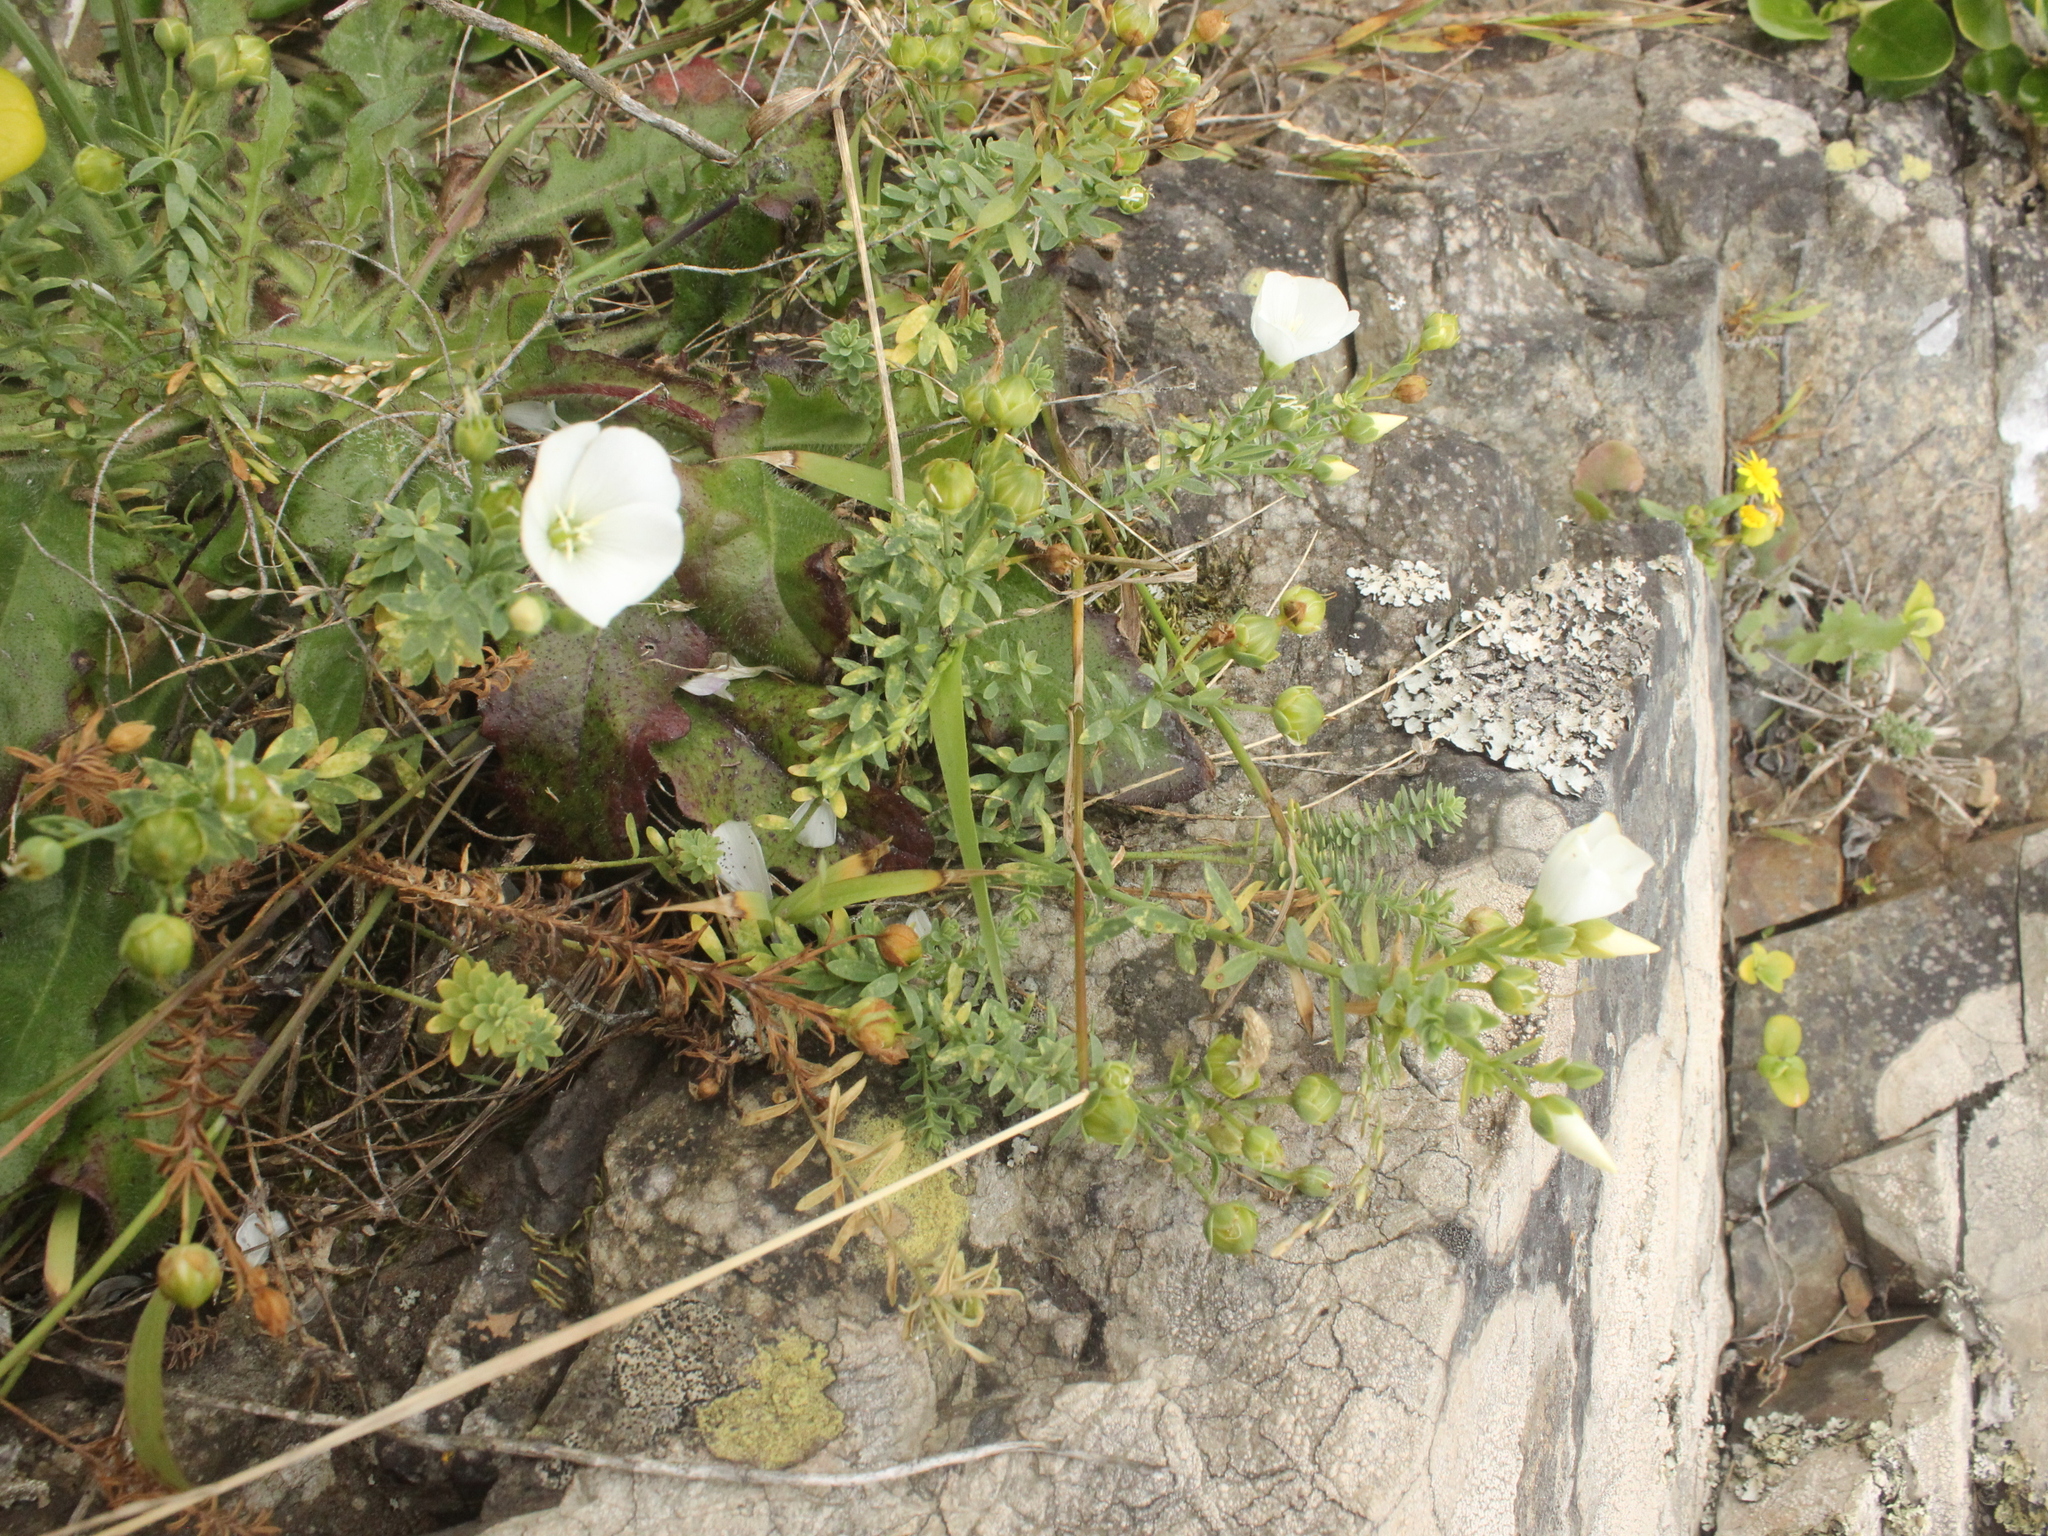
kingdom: Plantae
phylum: Tracheophyta
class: Magnoliopsida
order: Malpighiales
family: Linaceae
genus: Linum
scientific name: Linum monogynum
